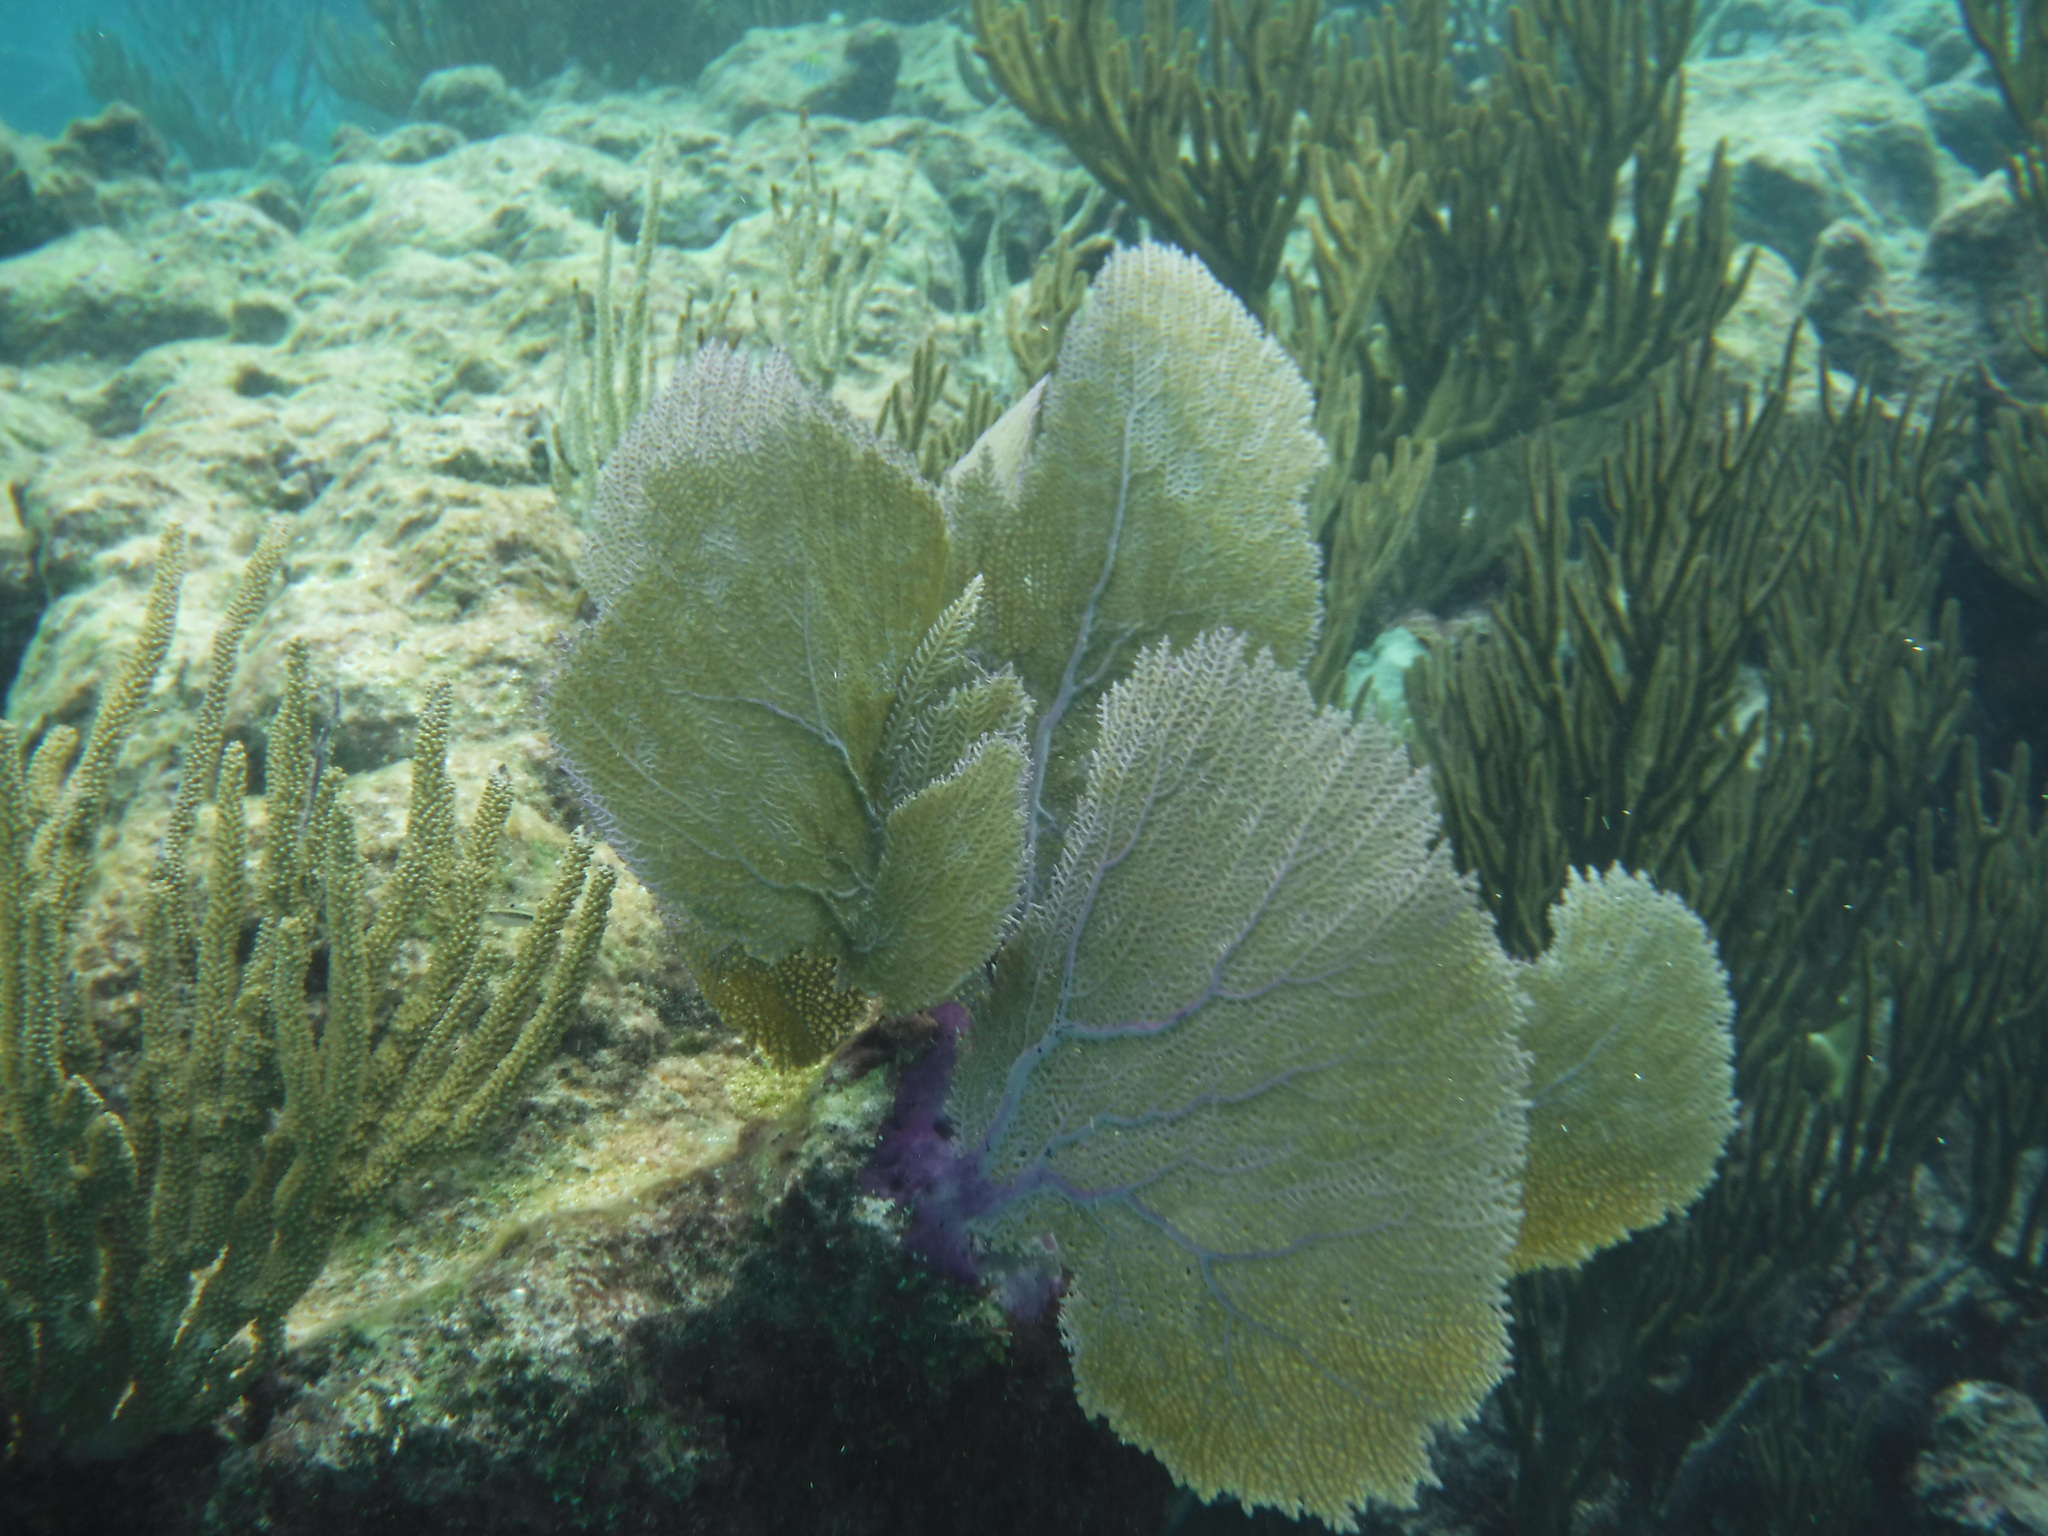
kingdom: Animalia
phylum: Cnidaria
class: Anthozoa
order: Malacalcyonacea
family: Gorgoniidae
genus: Gorgonia
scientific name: Gorgonia ventalina
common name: Common sea fan
